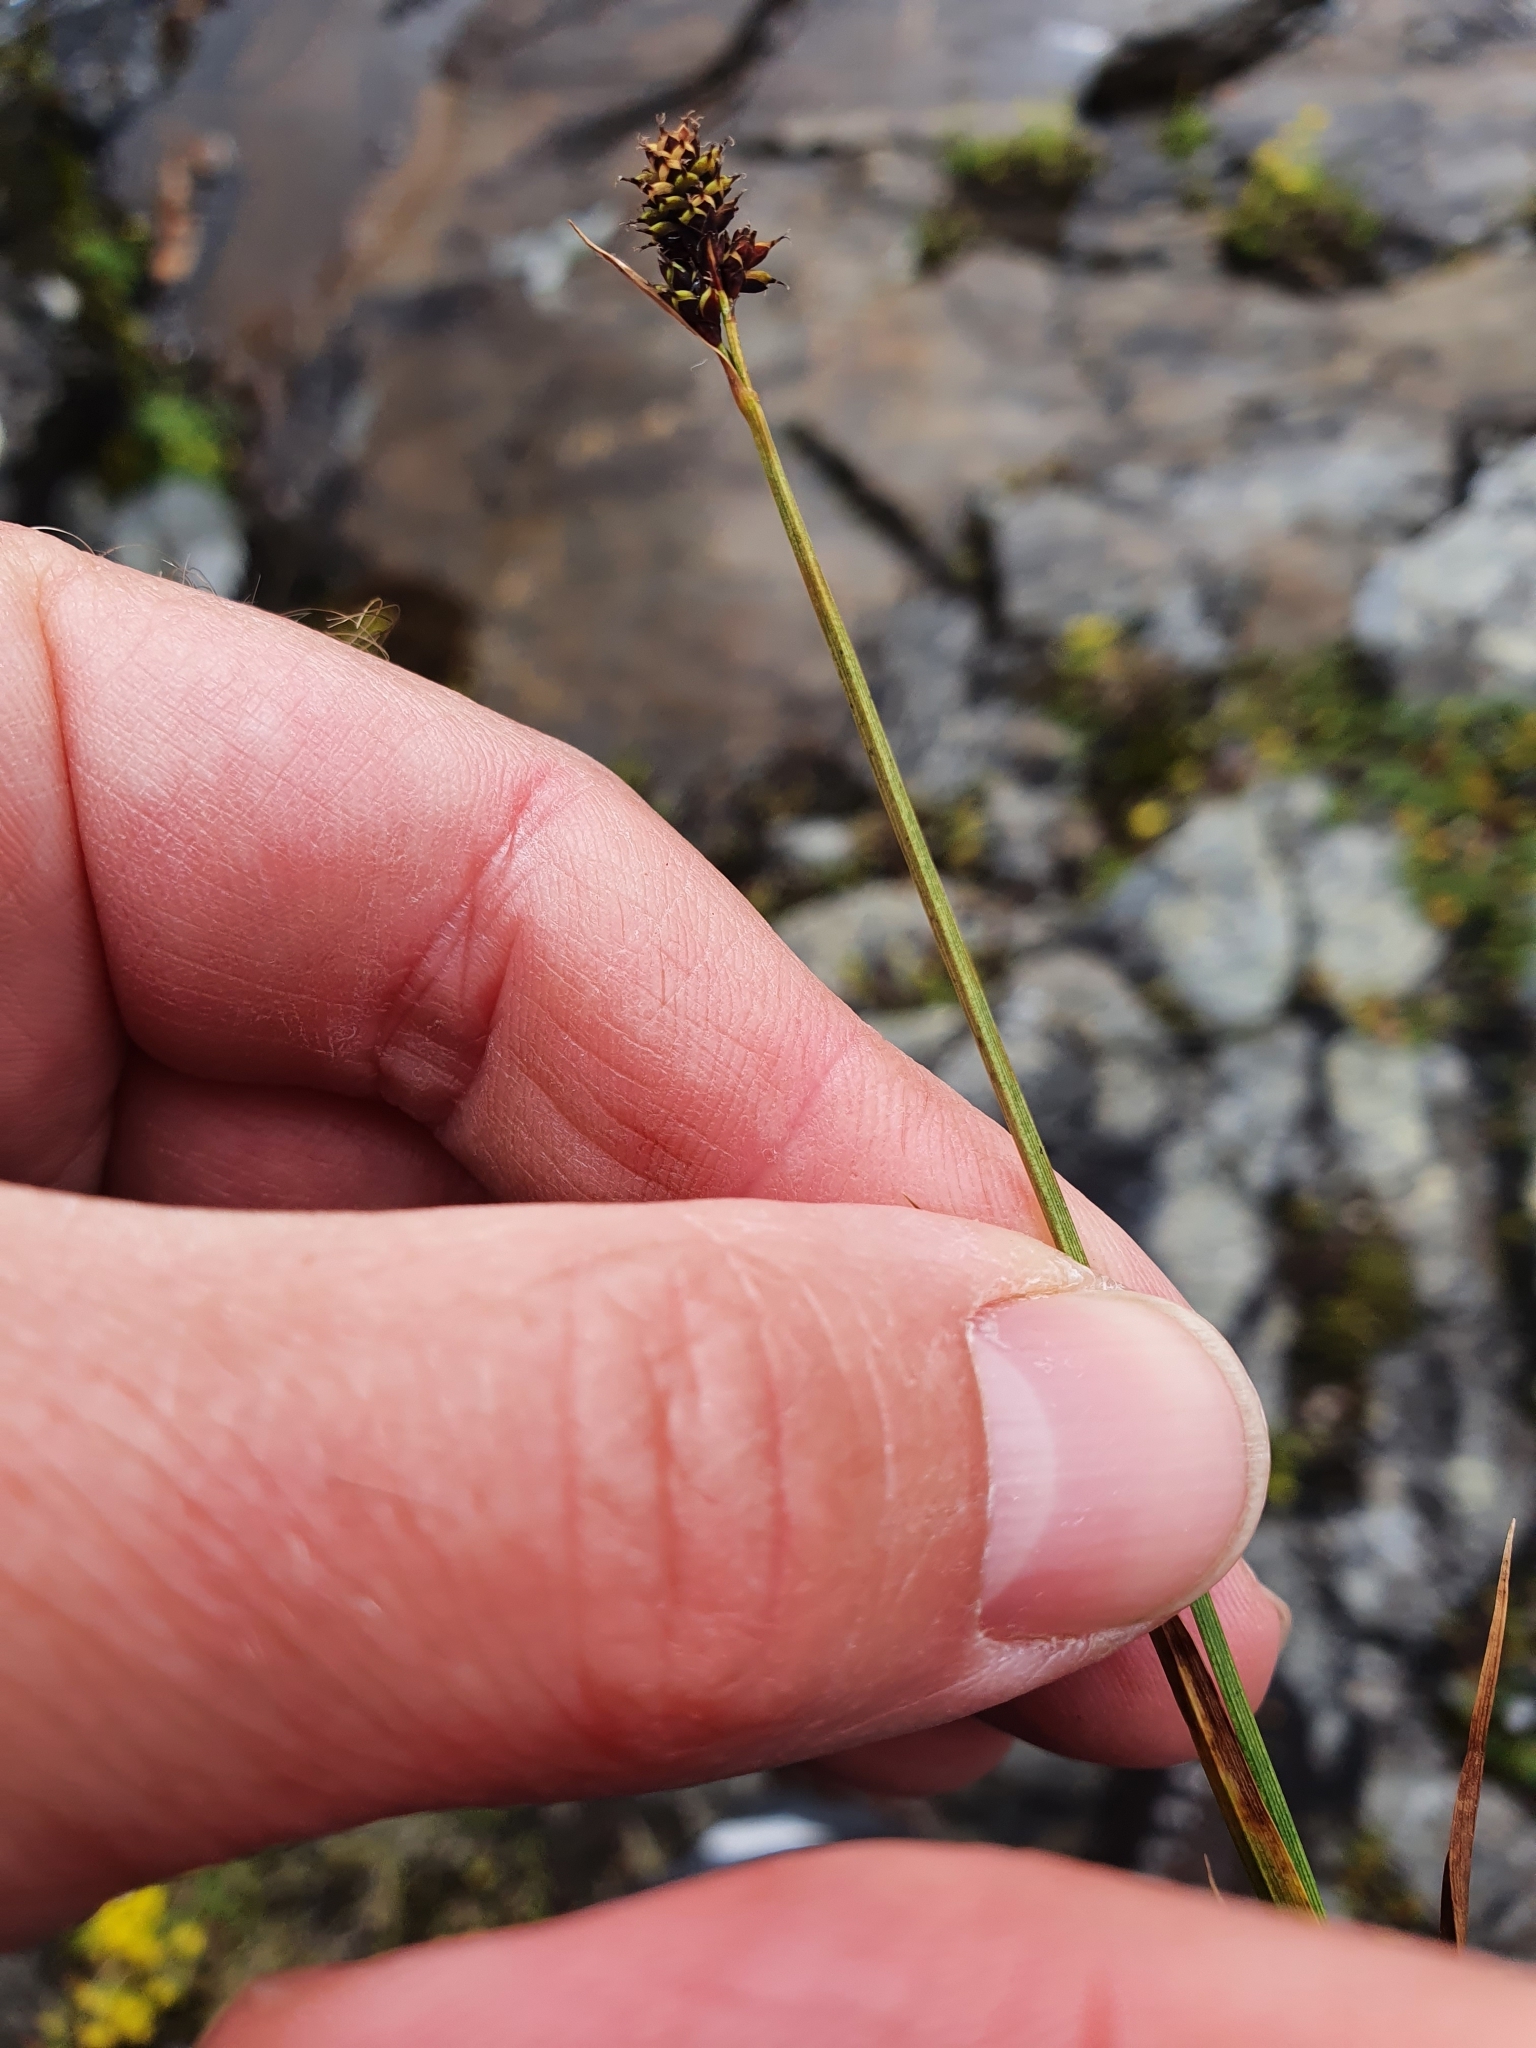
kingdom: Plantae
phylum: Tracheophyta
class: Liliopsida
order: Poales
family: Cyperaceae
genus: Carex
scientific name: Carex norvegica
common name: Close-headed alpine-sedge
